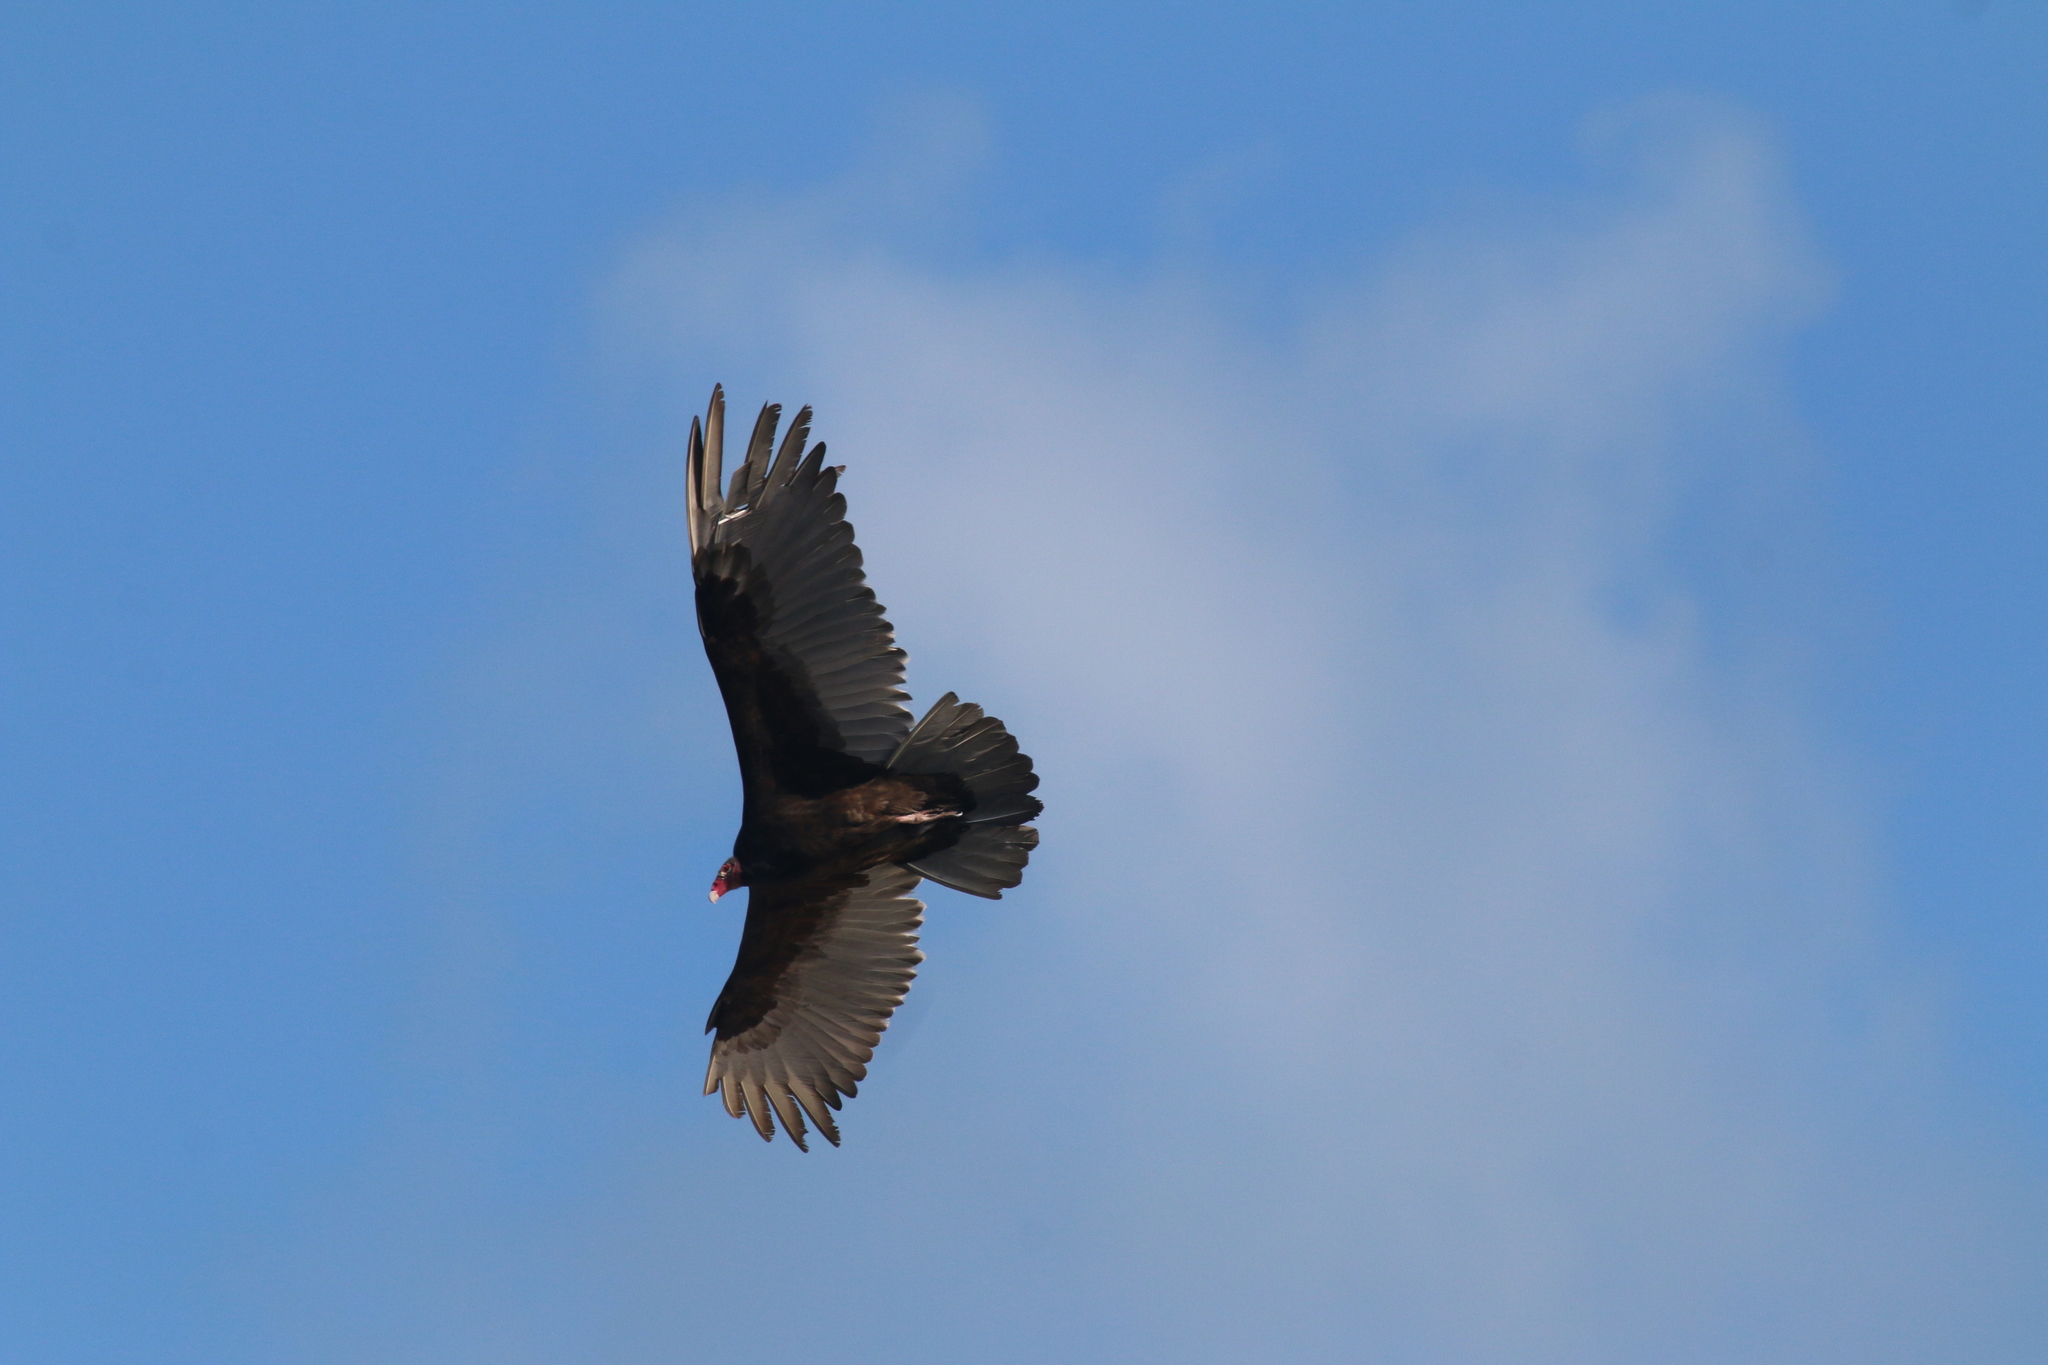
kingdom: Animalia
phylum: Chordata
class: Aves
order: Accipitriformes
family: Cathartidae
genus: Cathartes
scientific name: Cathartes aura
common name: Turkey vulture
